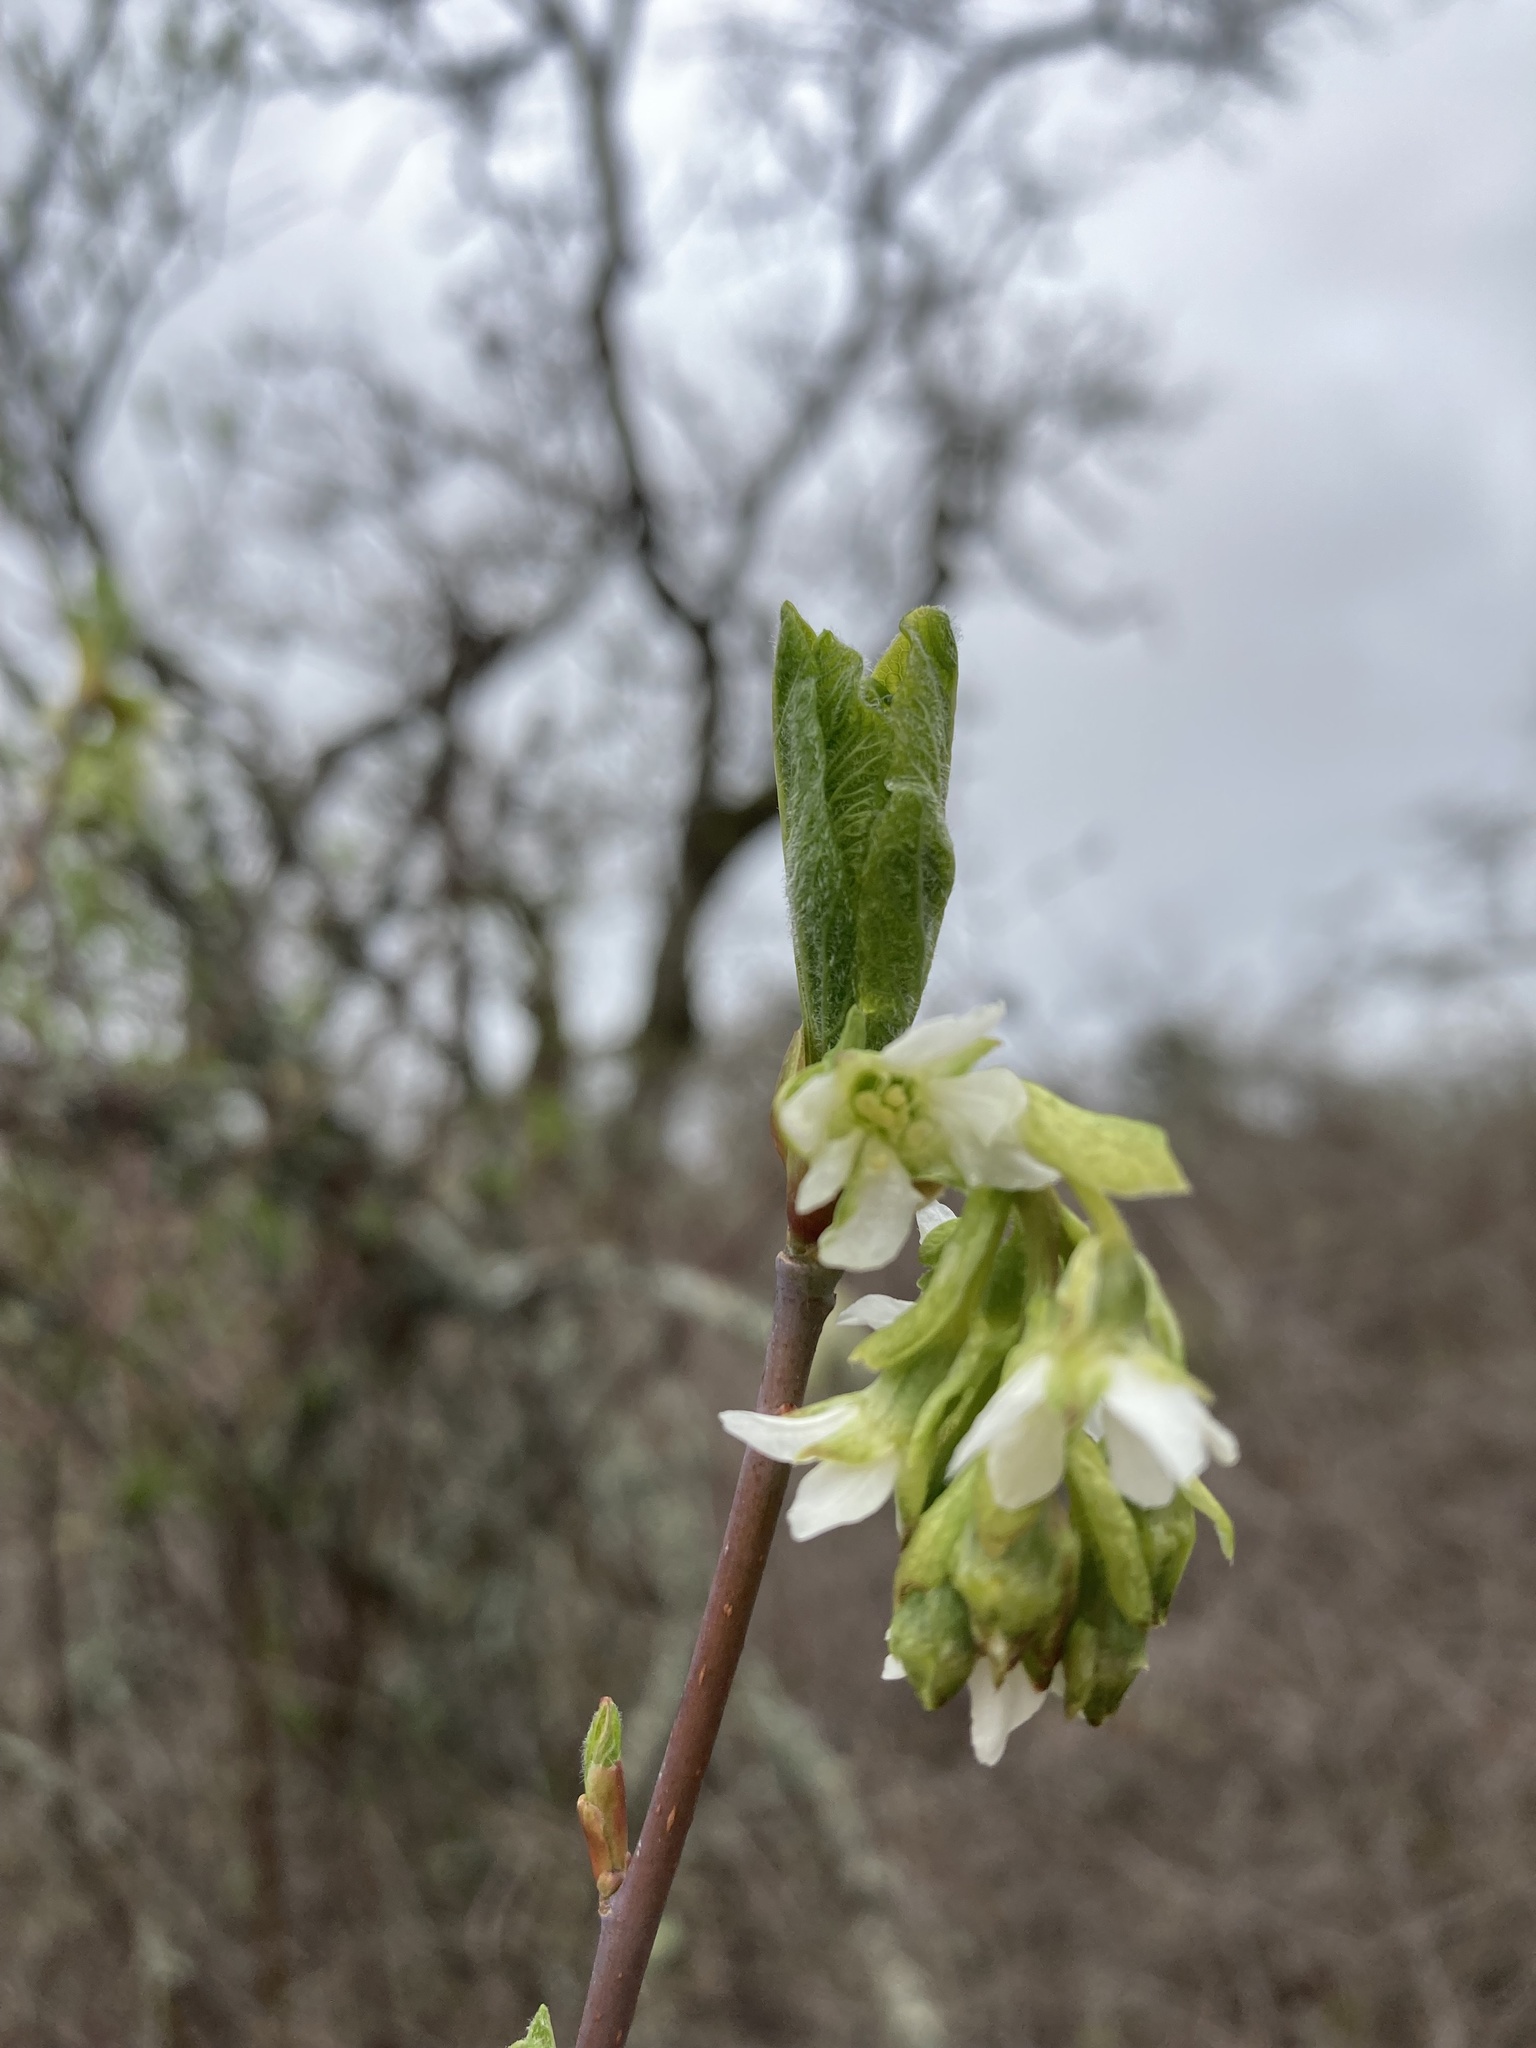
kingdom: Plantae
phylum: Tracheophyta
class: Magnoliopsida
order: Rosales
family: Rosaceae
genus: Oemleria
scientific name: Oemleria cerasiformis
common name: Osoberry
